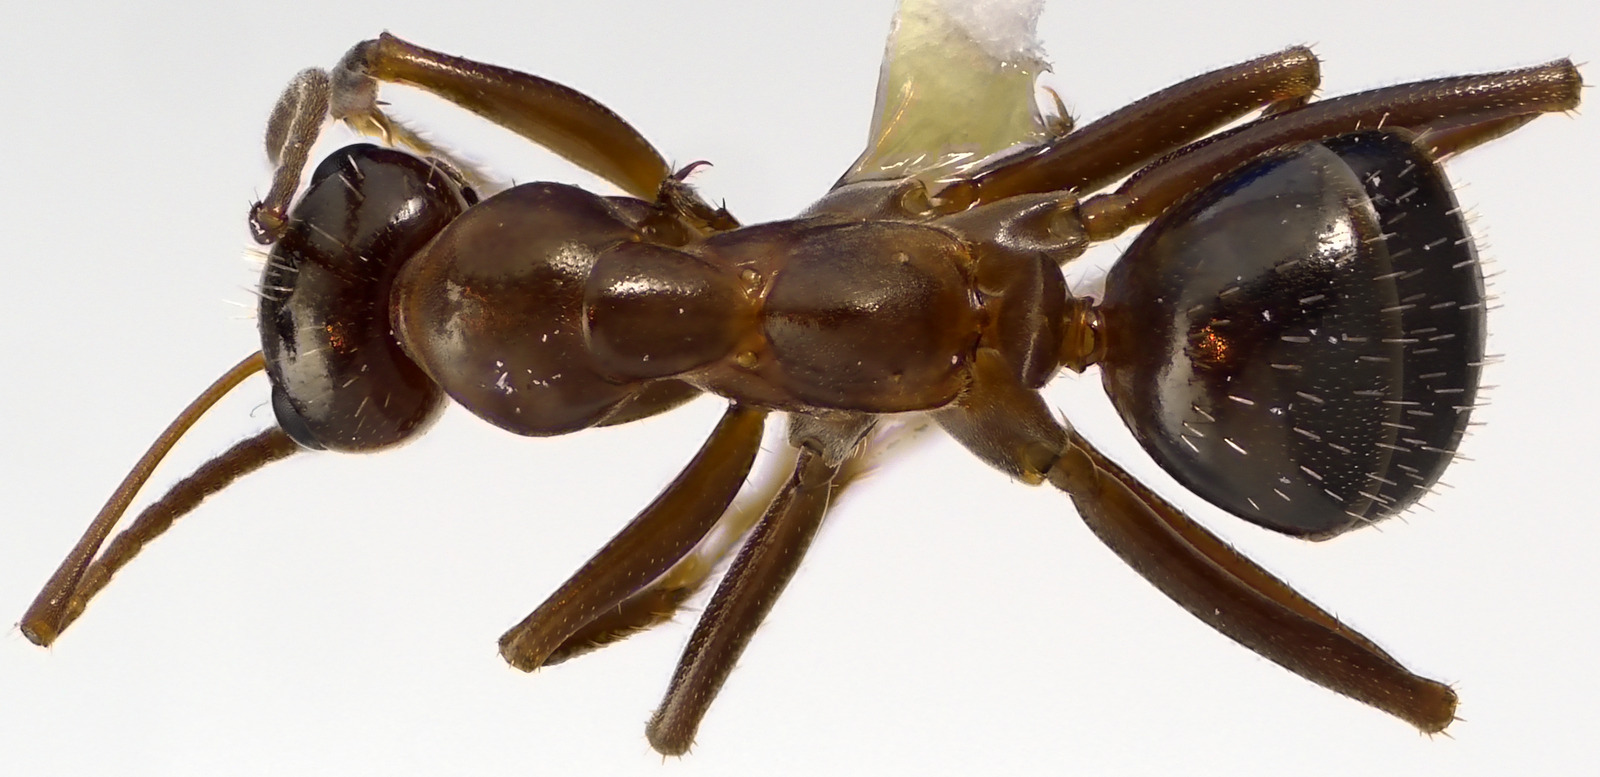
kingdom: Animalia
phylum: Arthropoda
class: Insecta
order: Hymenoptera
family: Formicidae
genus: Formica
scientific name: Formica pallidefulva
